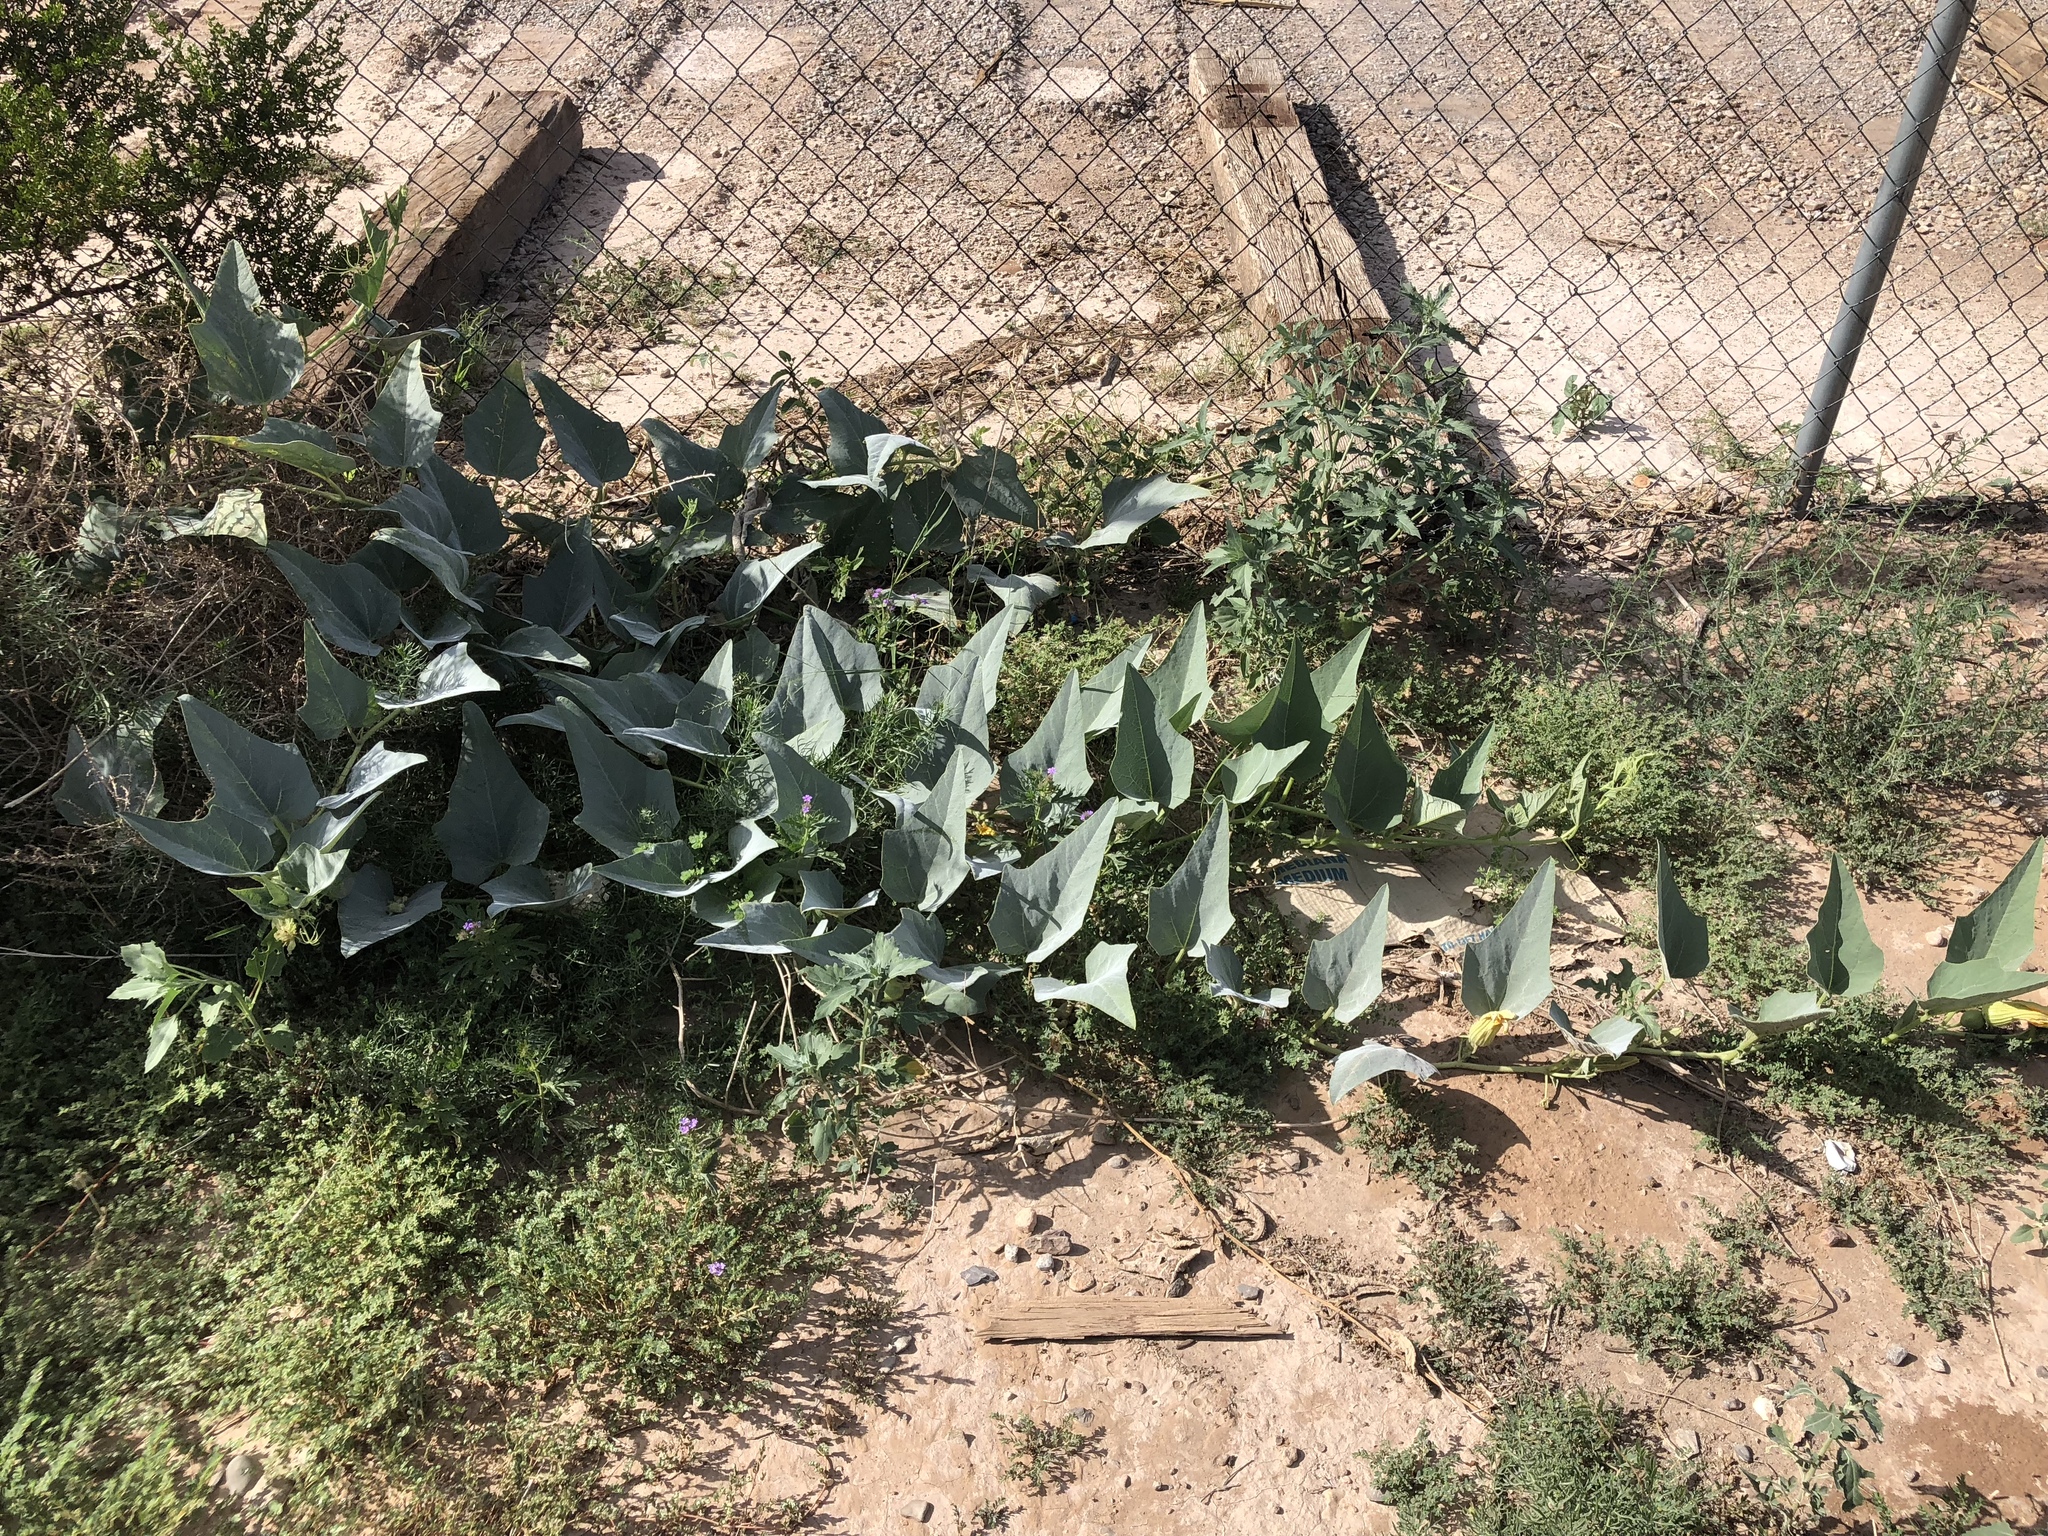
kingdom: Plantae
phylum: Tracheophyta
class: Magnoliopsida
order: Cucurbitales
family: Cucurbitaceae
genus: Cucurbita
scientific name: Cucurbita foetidissima
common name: Buffalo gourd
